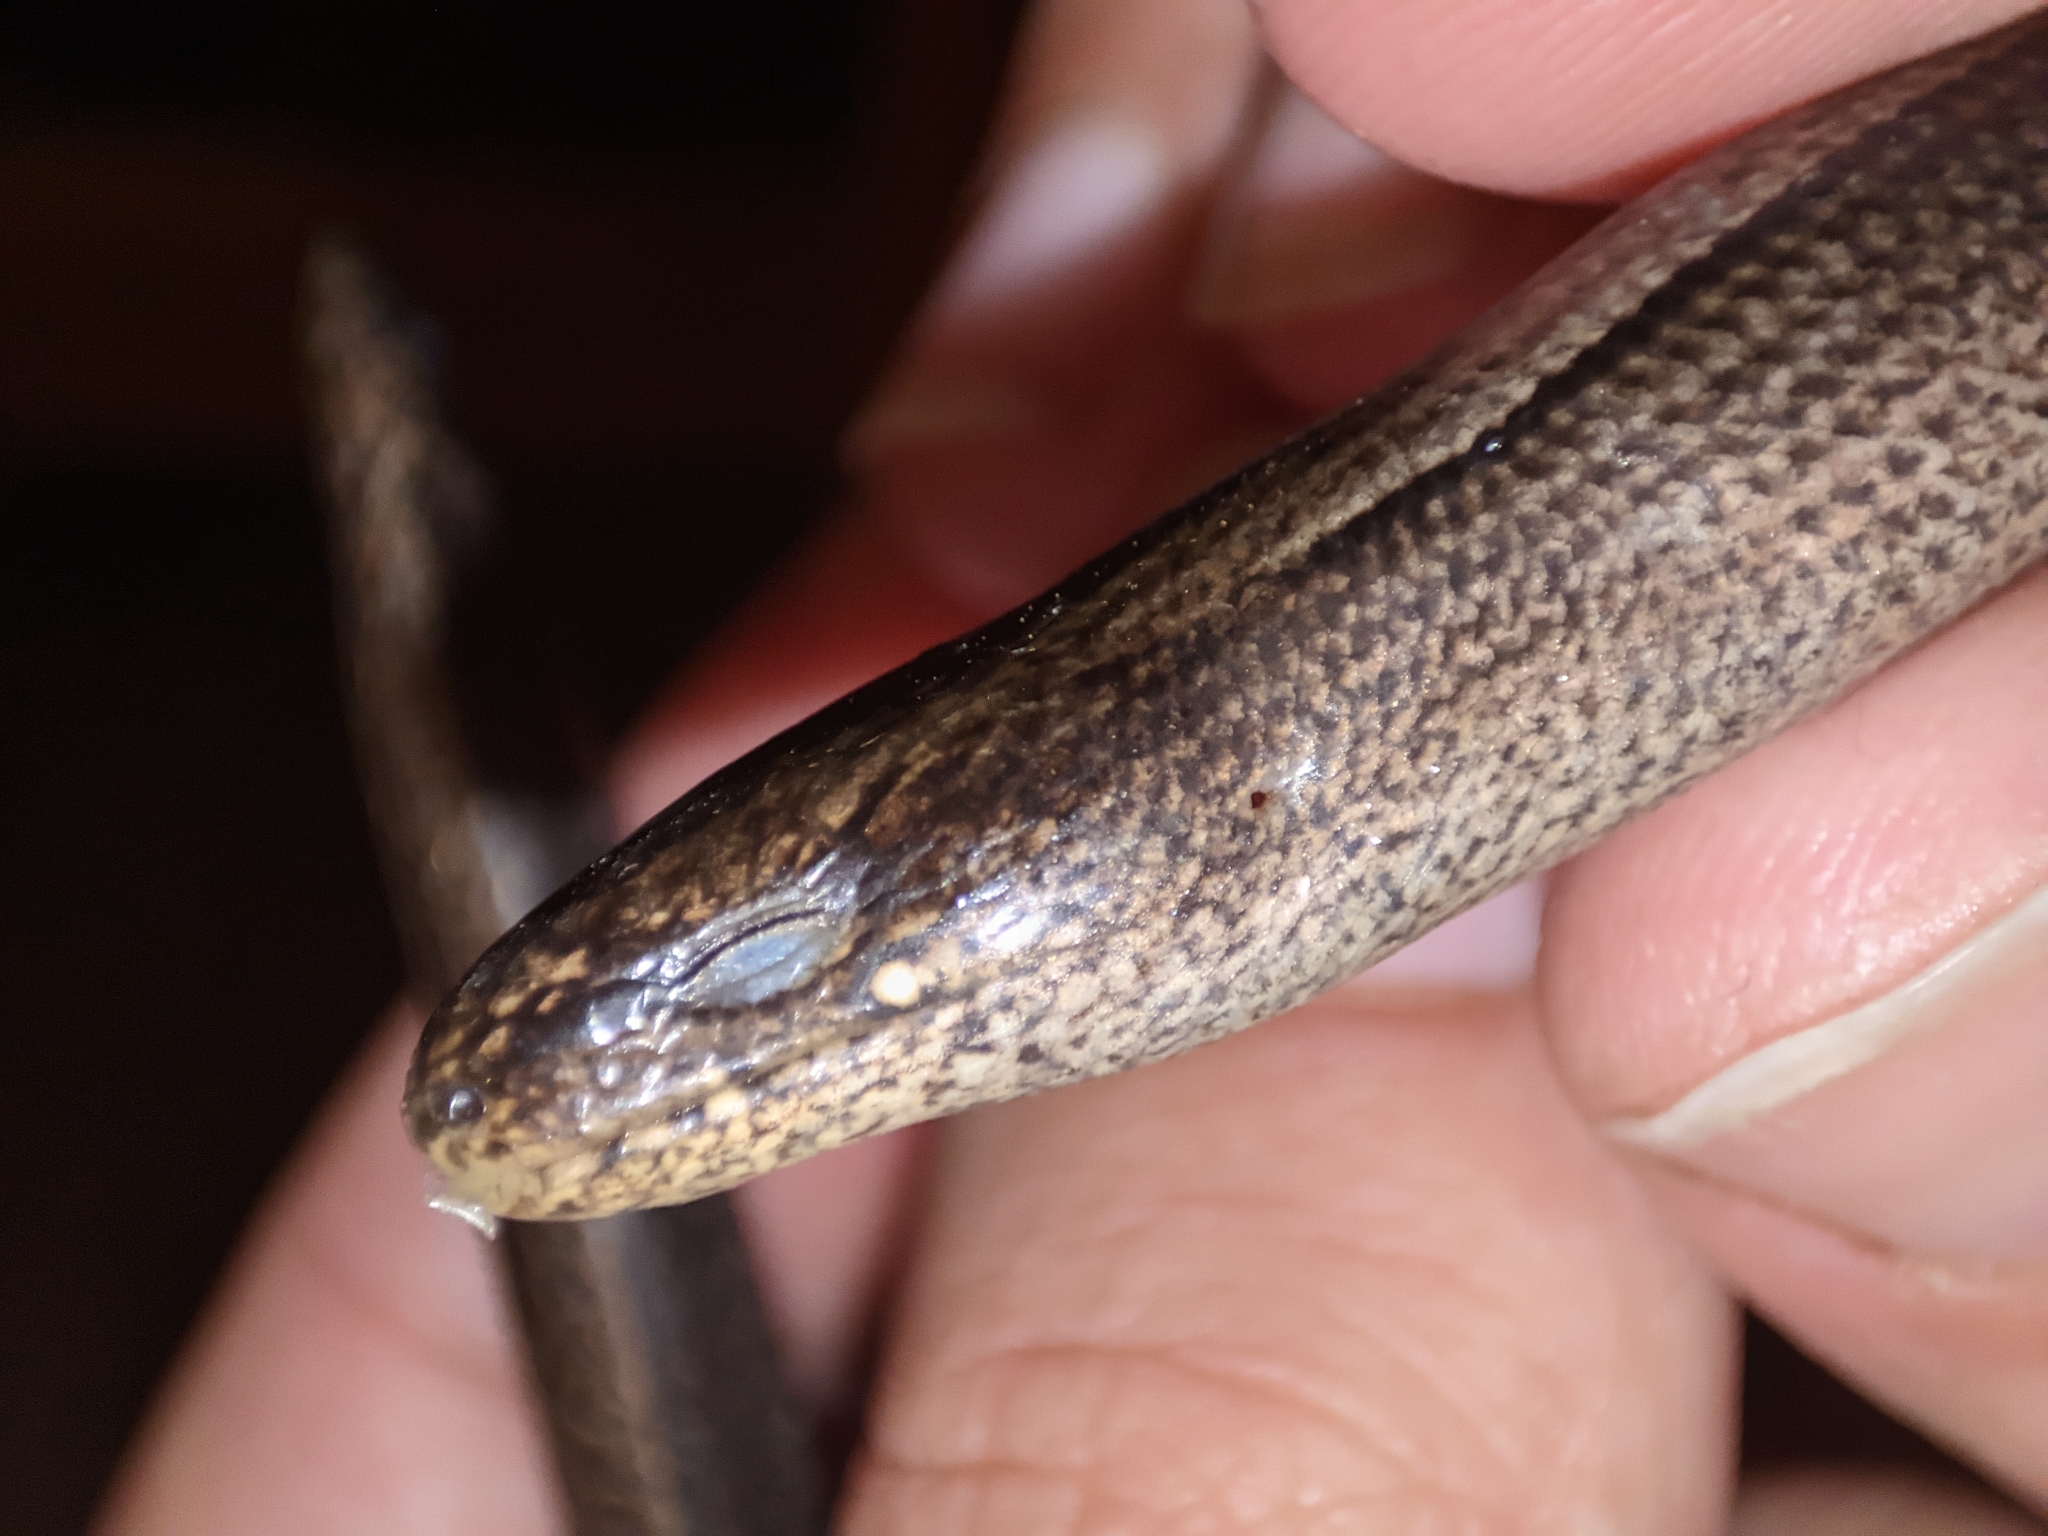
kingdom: Animalia
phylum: Chordata
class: Squamata
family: Anguidae
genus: Anguis
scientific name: Anguis colchica
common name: Slow worm
